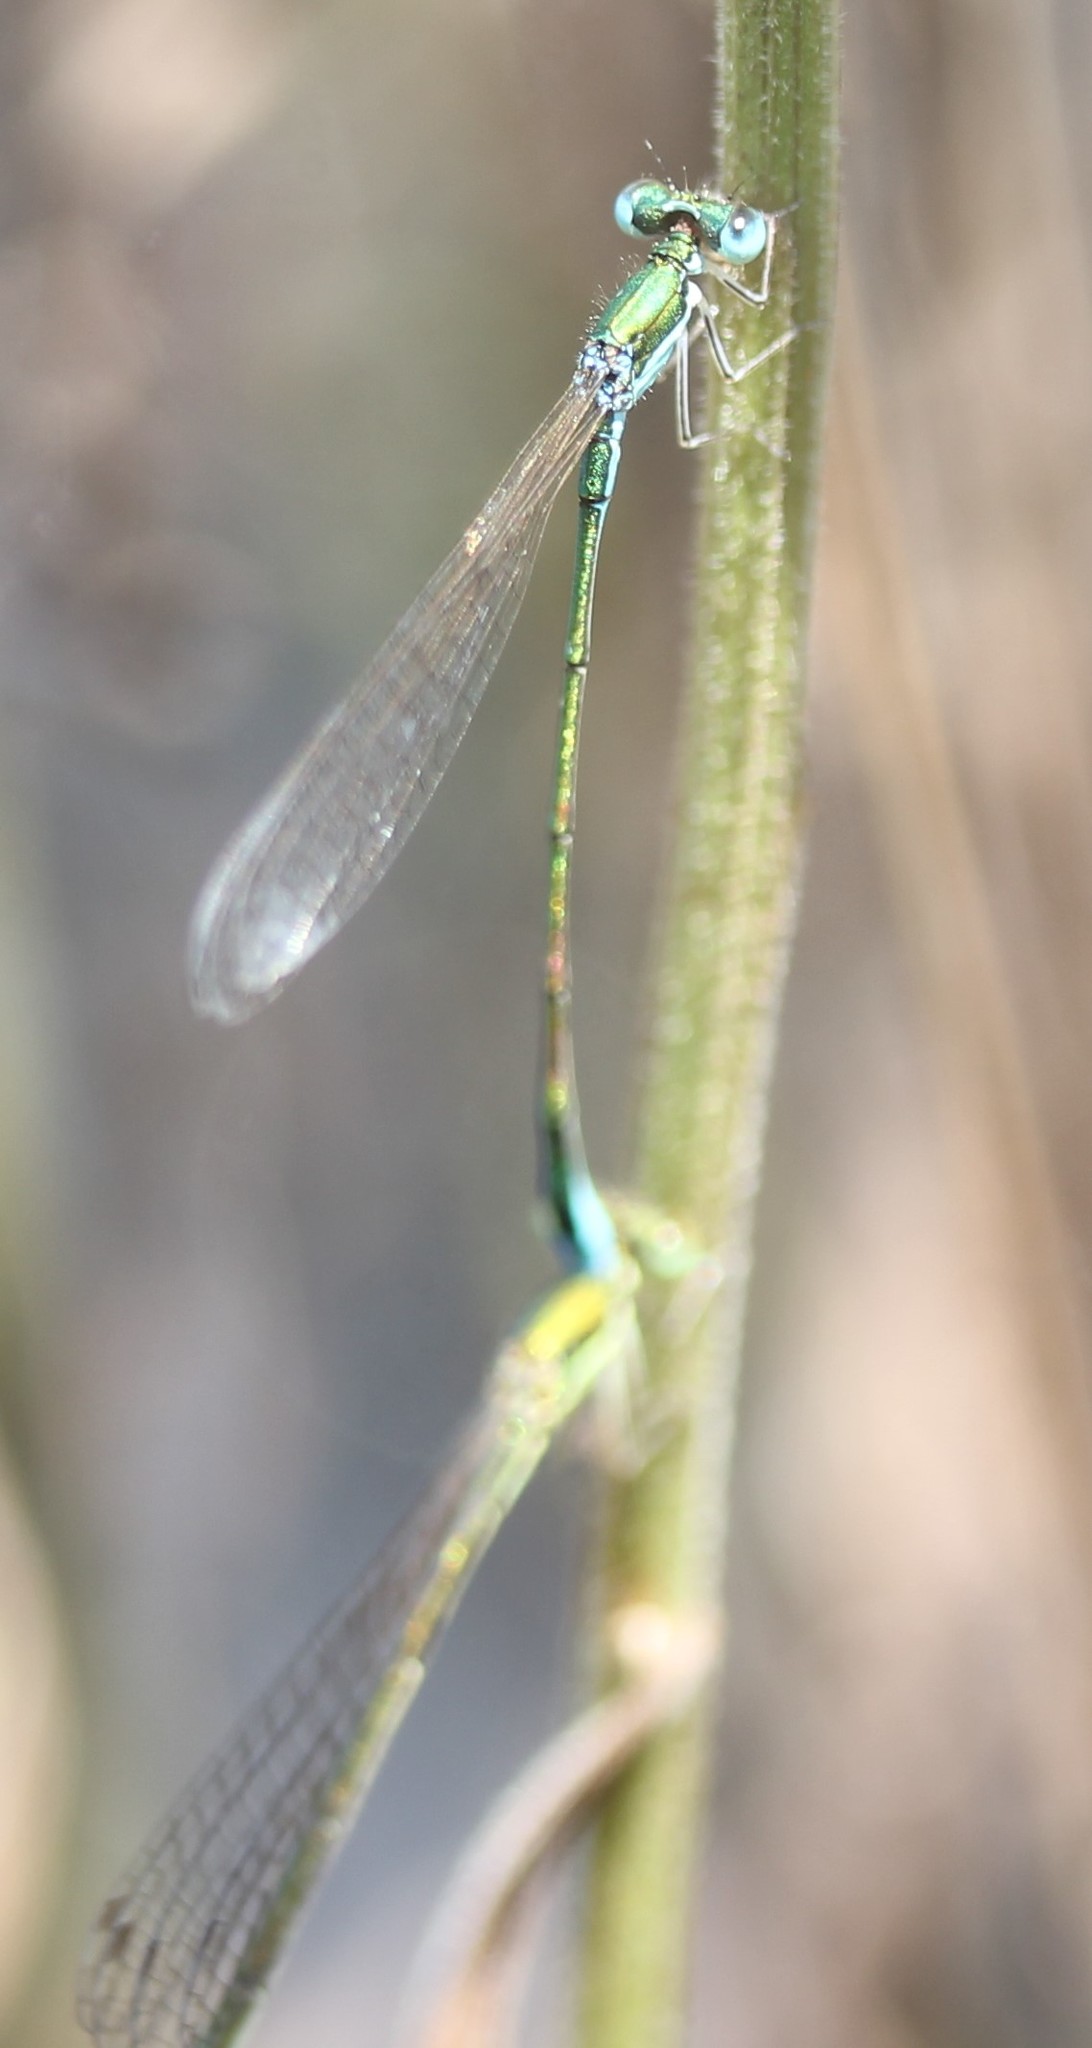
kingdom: Animalia
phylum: Arthropoda
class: Insecta
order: Odonata
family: Coenagrionidae
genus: Nehalennia
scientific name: Nehalennia irene
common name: Sedge sprite
